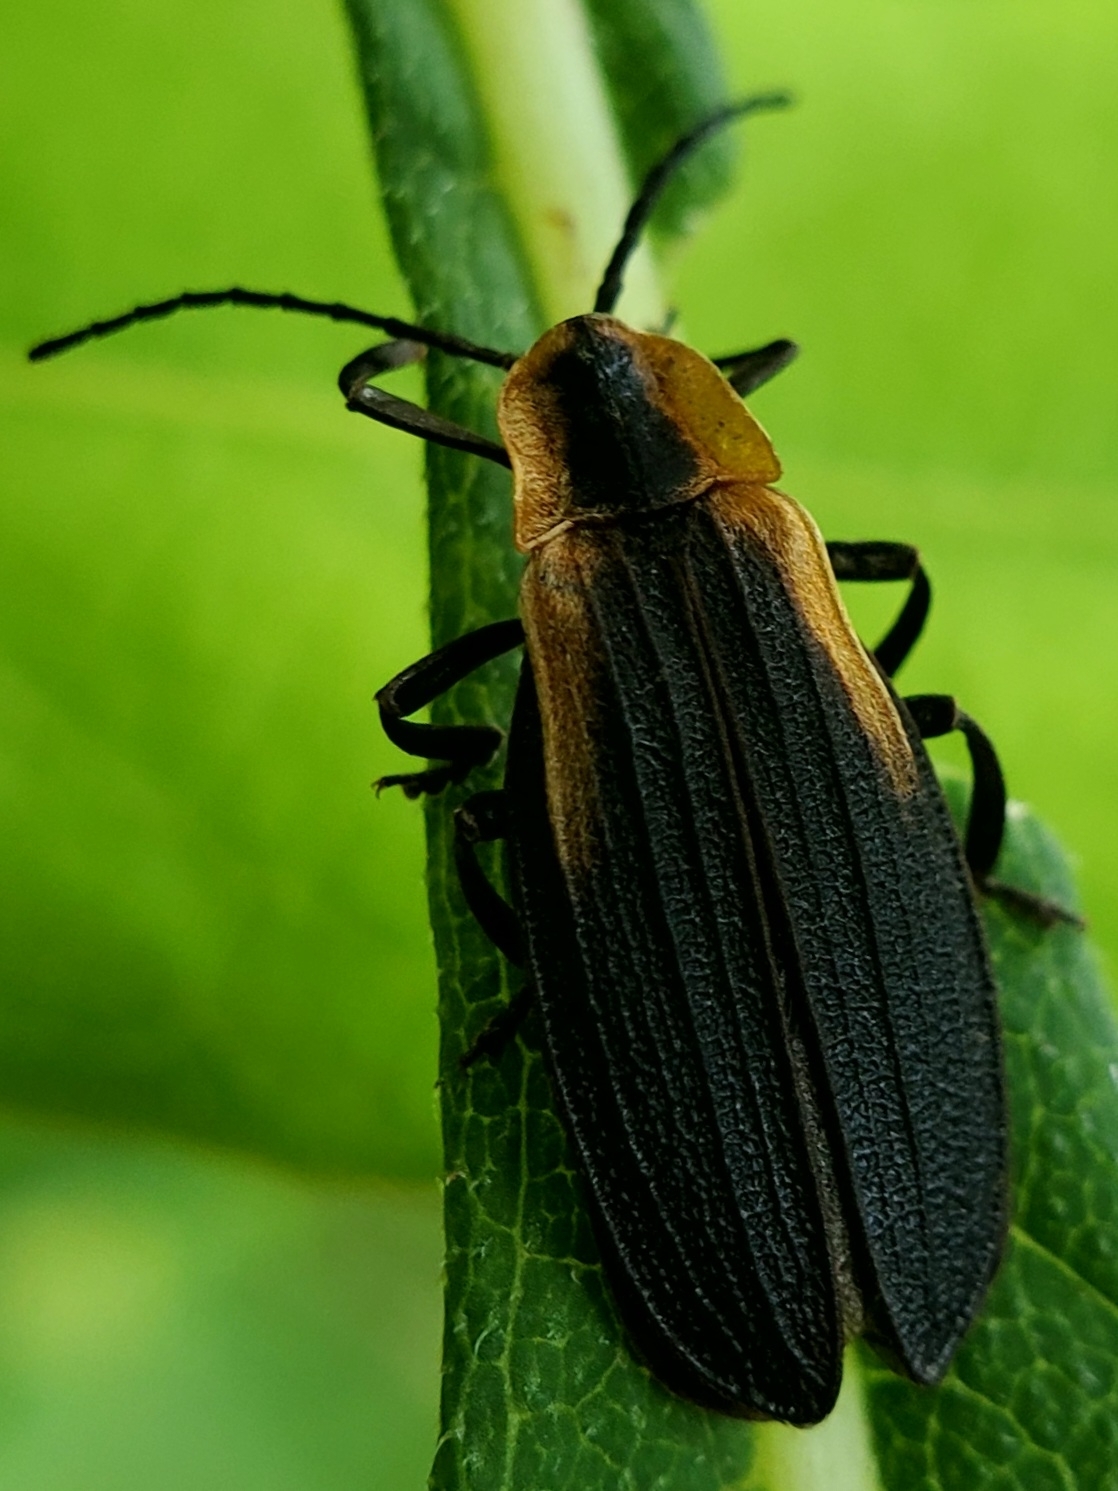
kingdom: Animalia
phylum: Arthropoda
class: Insecta
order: Coleoptera
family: Lycidae
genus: Lyconotus
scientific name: Lyconotus lateralis
